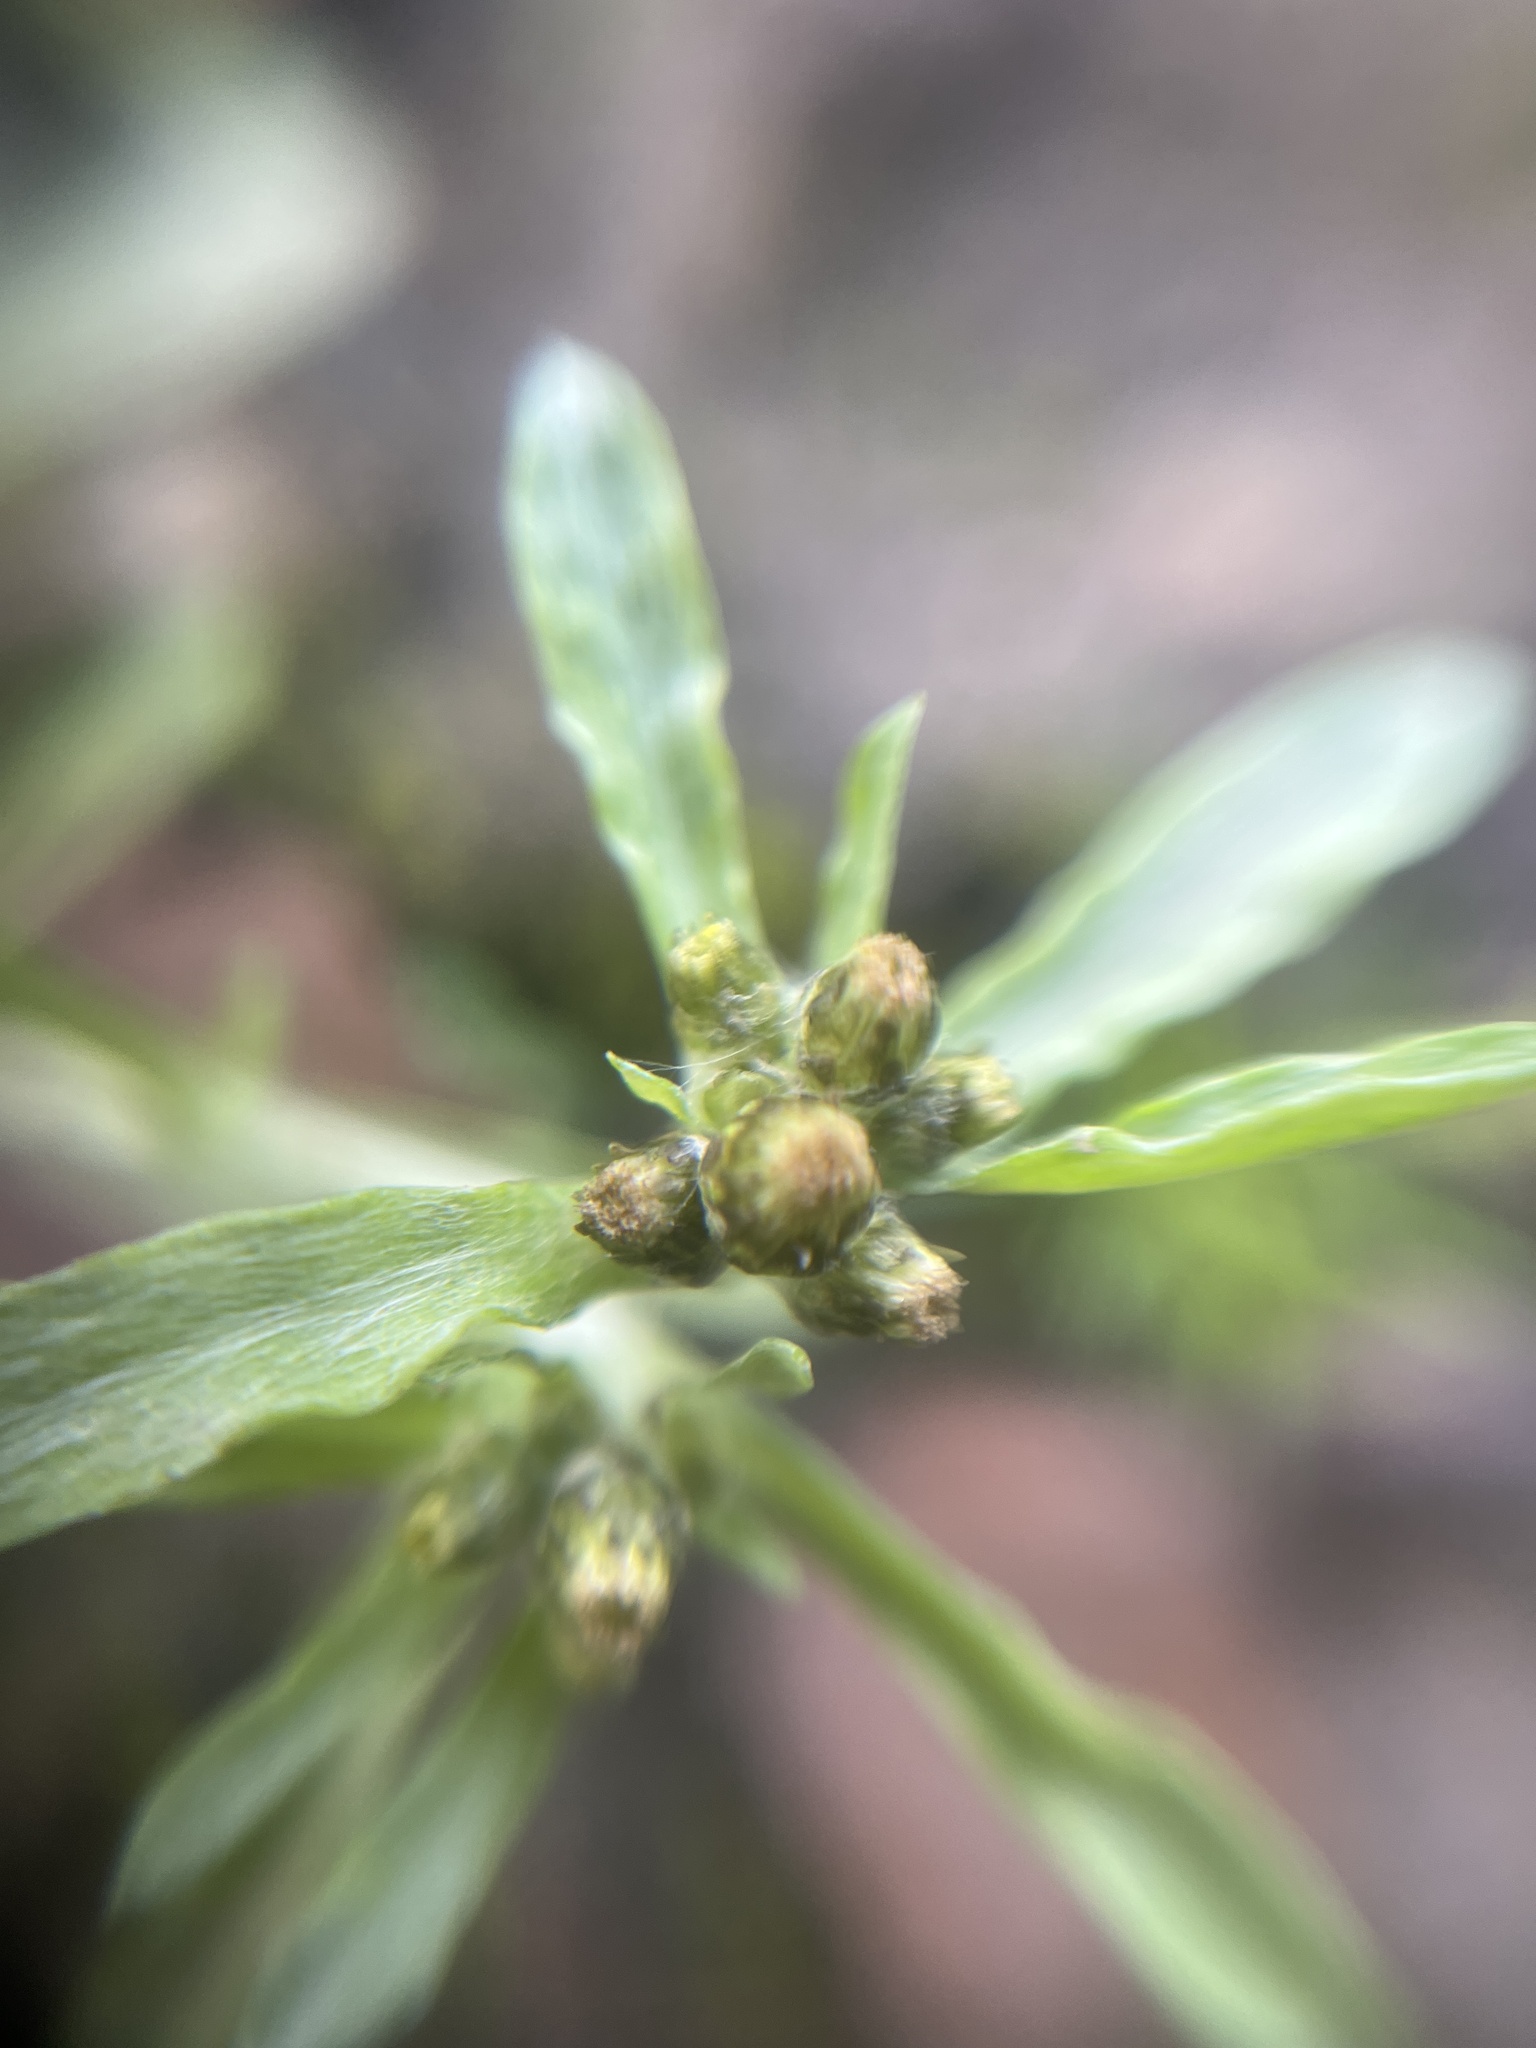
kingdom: Plantae
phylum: Tracheophyta
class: Magnoliopsida
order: Asterales
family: Asteraceae
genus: Gnaphalium
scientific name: Gnaphalium uliginosum
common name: Marsh cudweed
